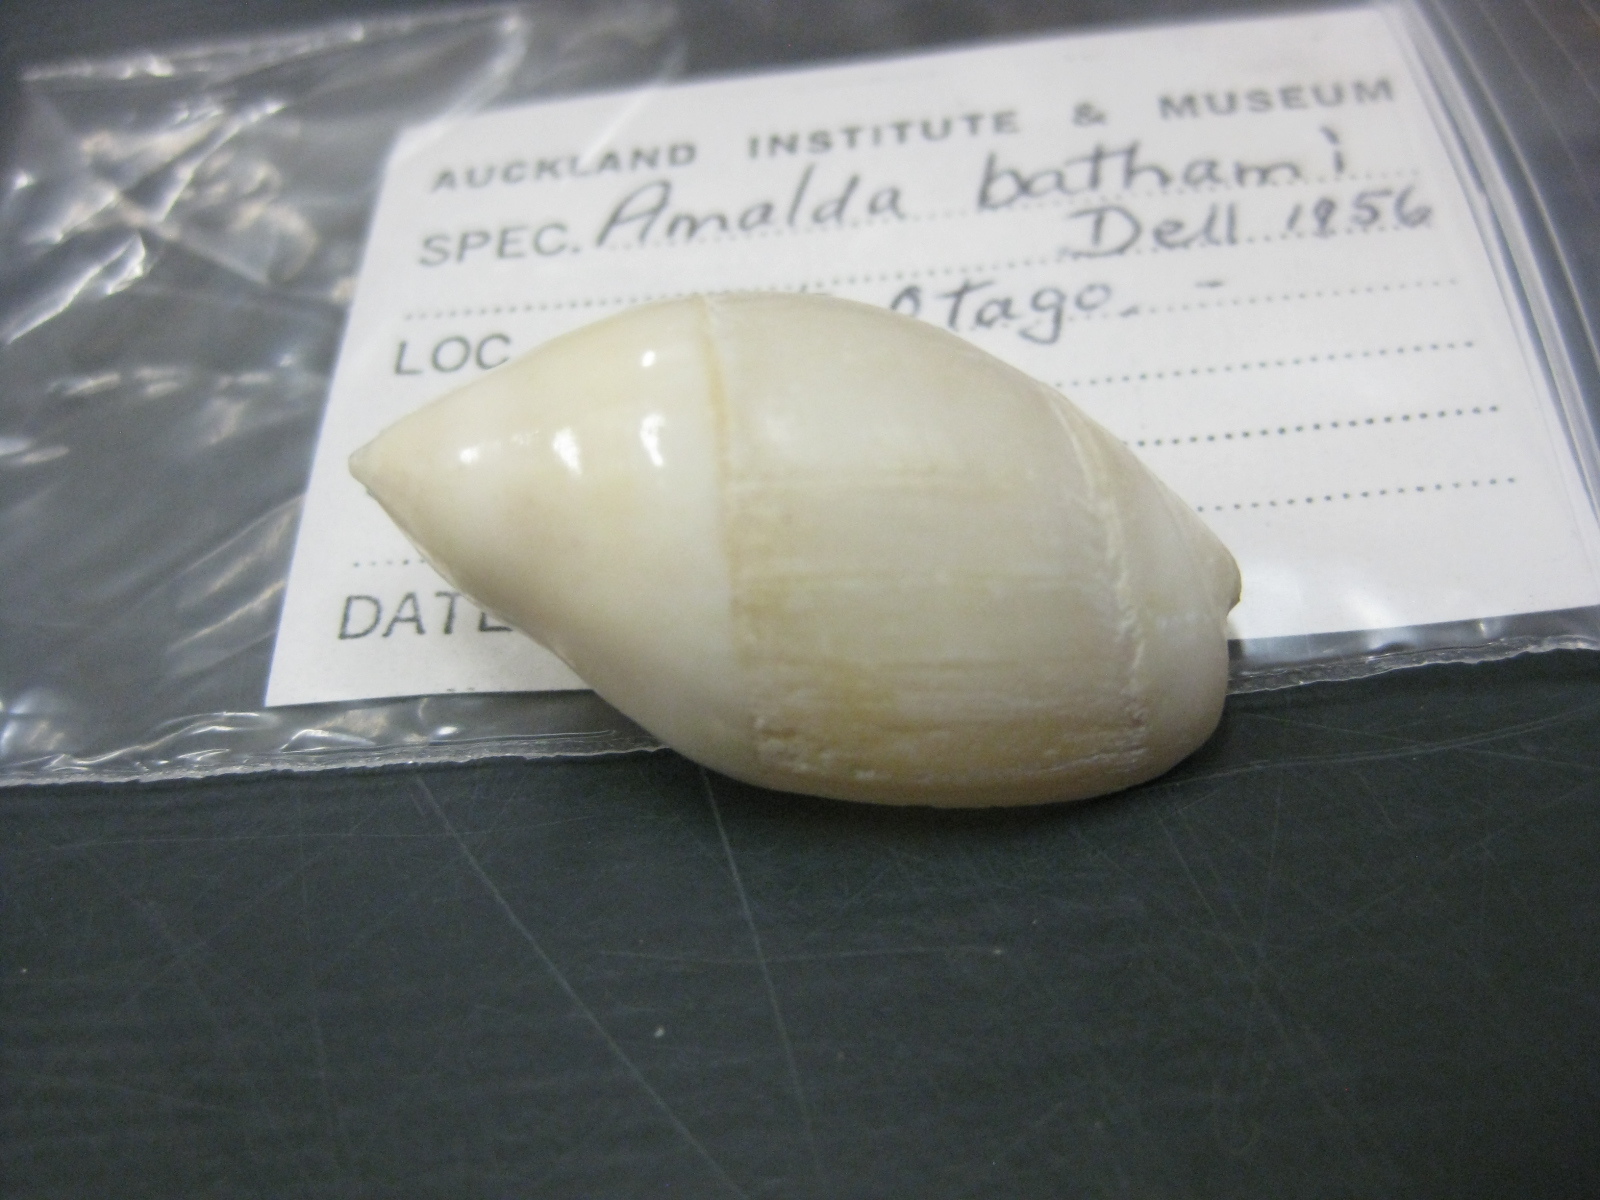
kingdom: Animalia
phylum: Mollusca
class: Gastropoda
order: Neogastropoda
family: Ancillariidae
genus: Amalda
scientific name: Amalda bathamae
